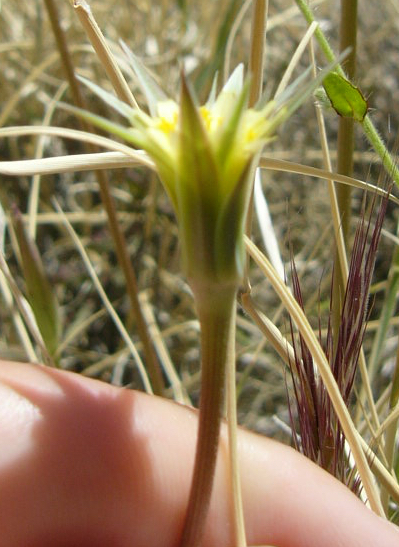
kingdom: Plantae
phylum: Tracheophyta
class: Magnoliopsida
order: Asterales
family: Asteraceae
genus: Microseris
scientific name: Microseris lindleyi
